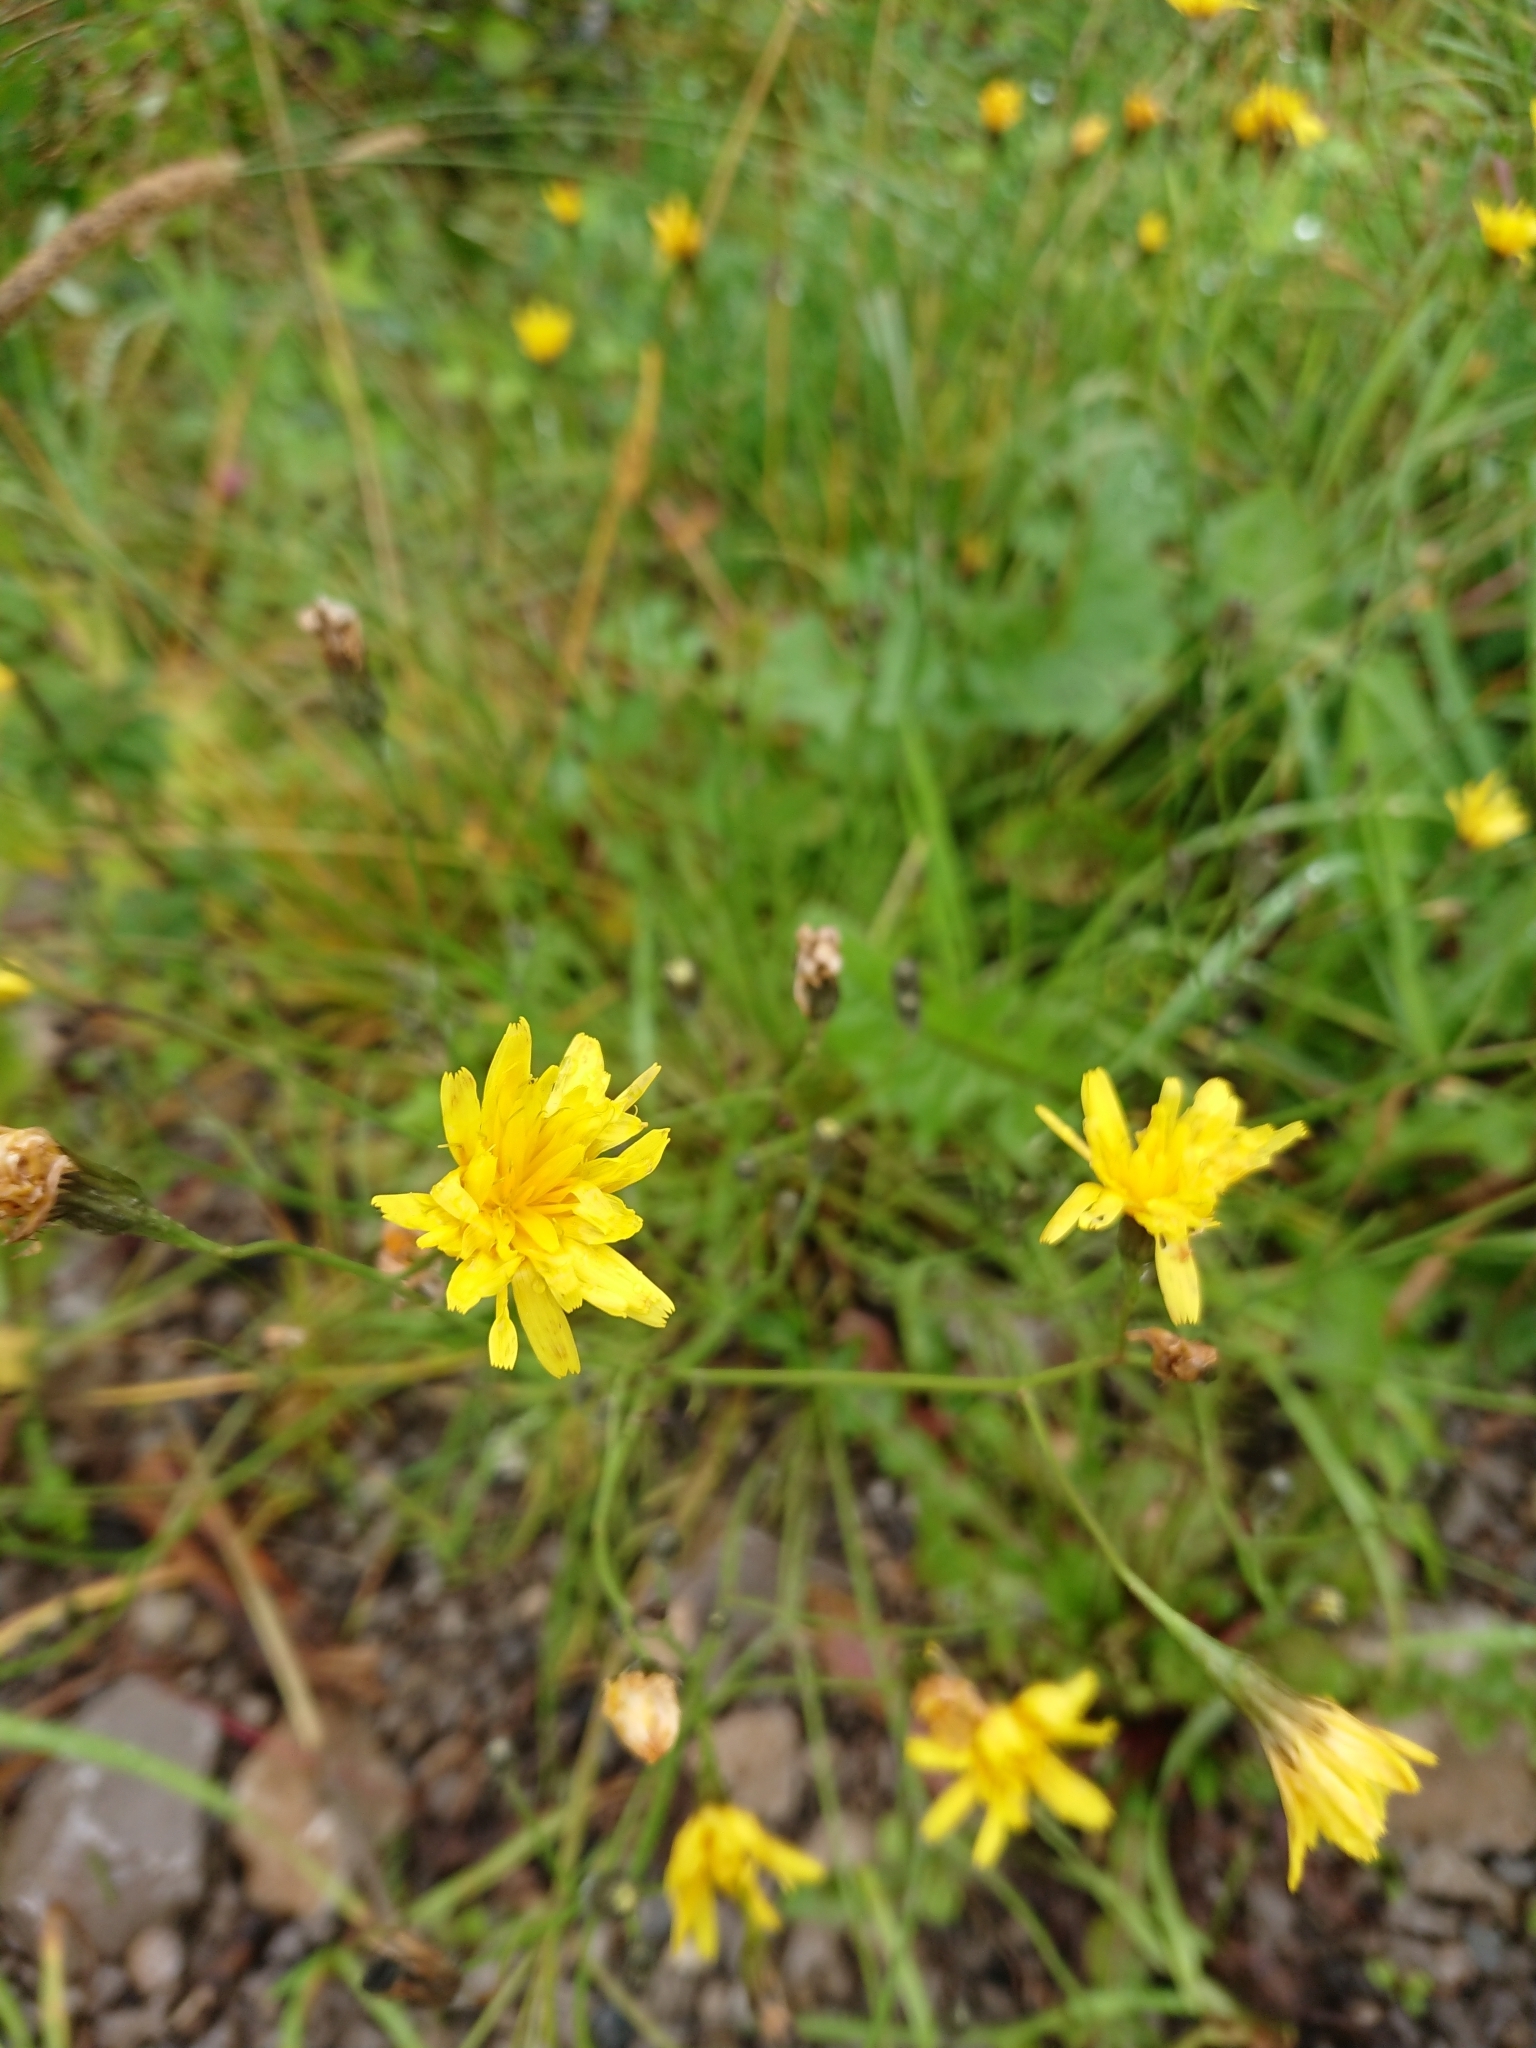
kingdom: Plantae
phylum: Tracheophyta
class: Magnoliopsida
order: Asterales
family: Asteraceae
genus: Scorzoneroides
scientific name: Scorzoneroides autumnalis
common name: Autumn hawkbit
